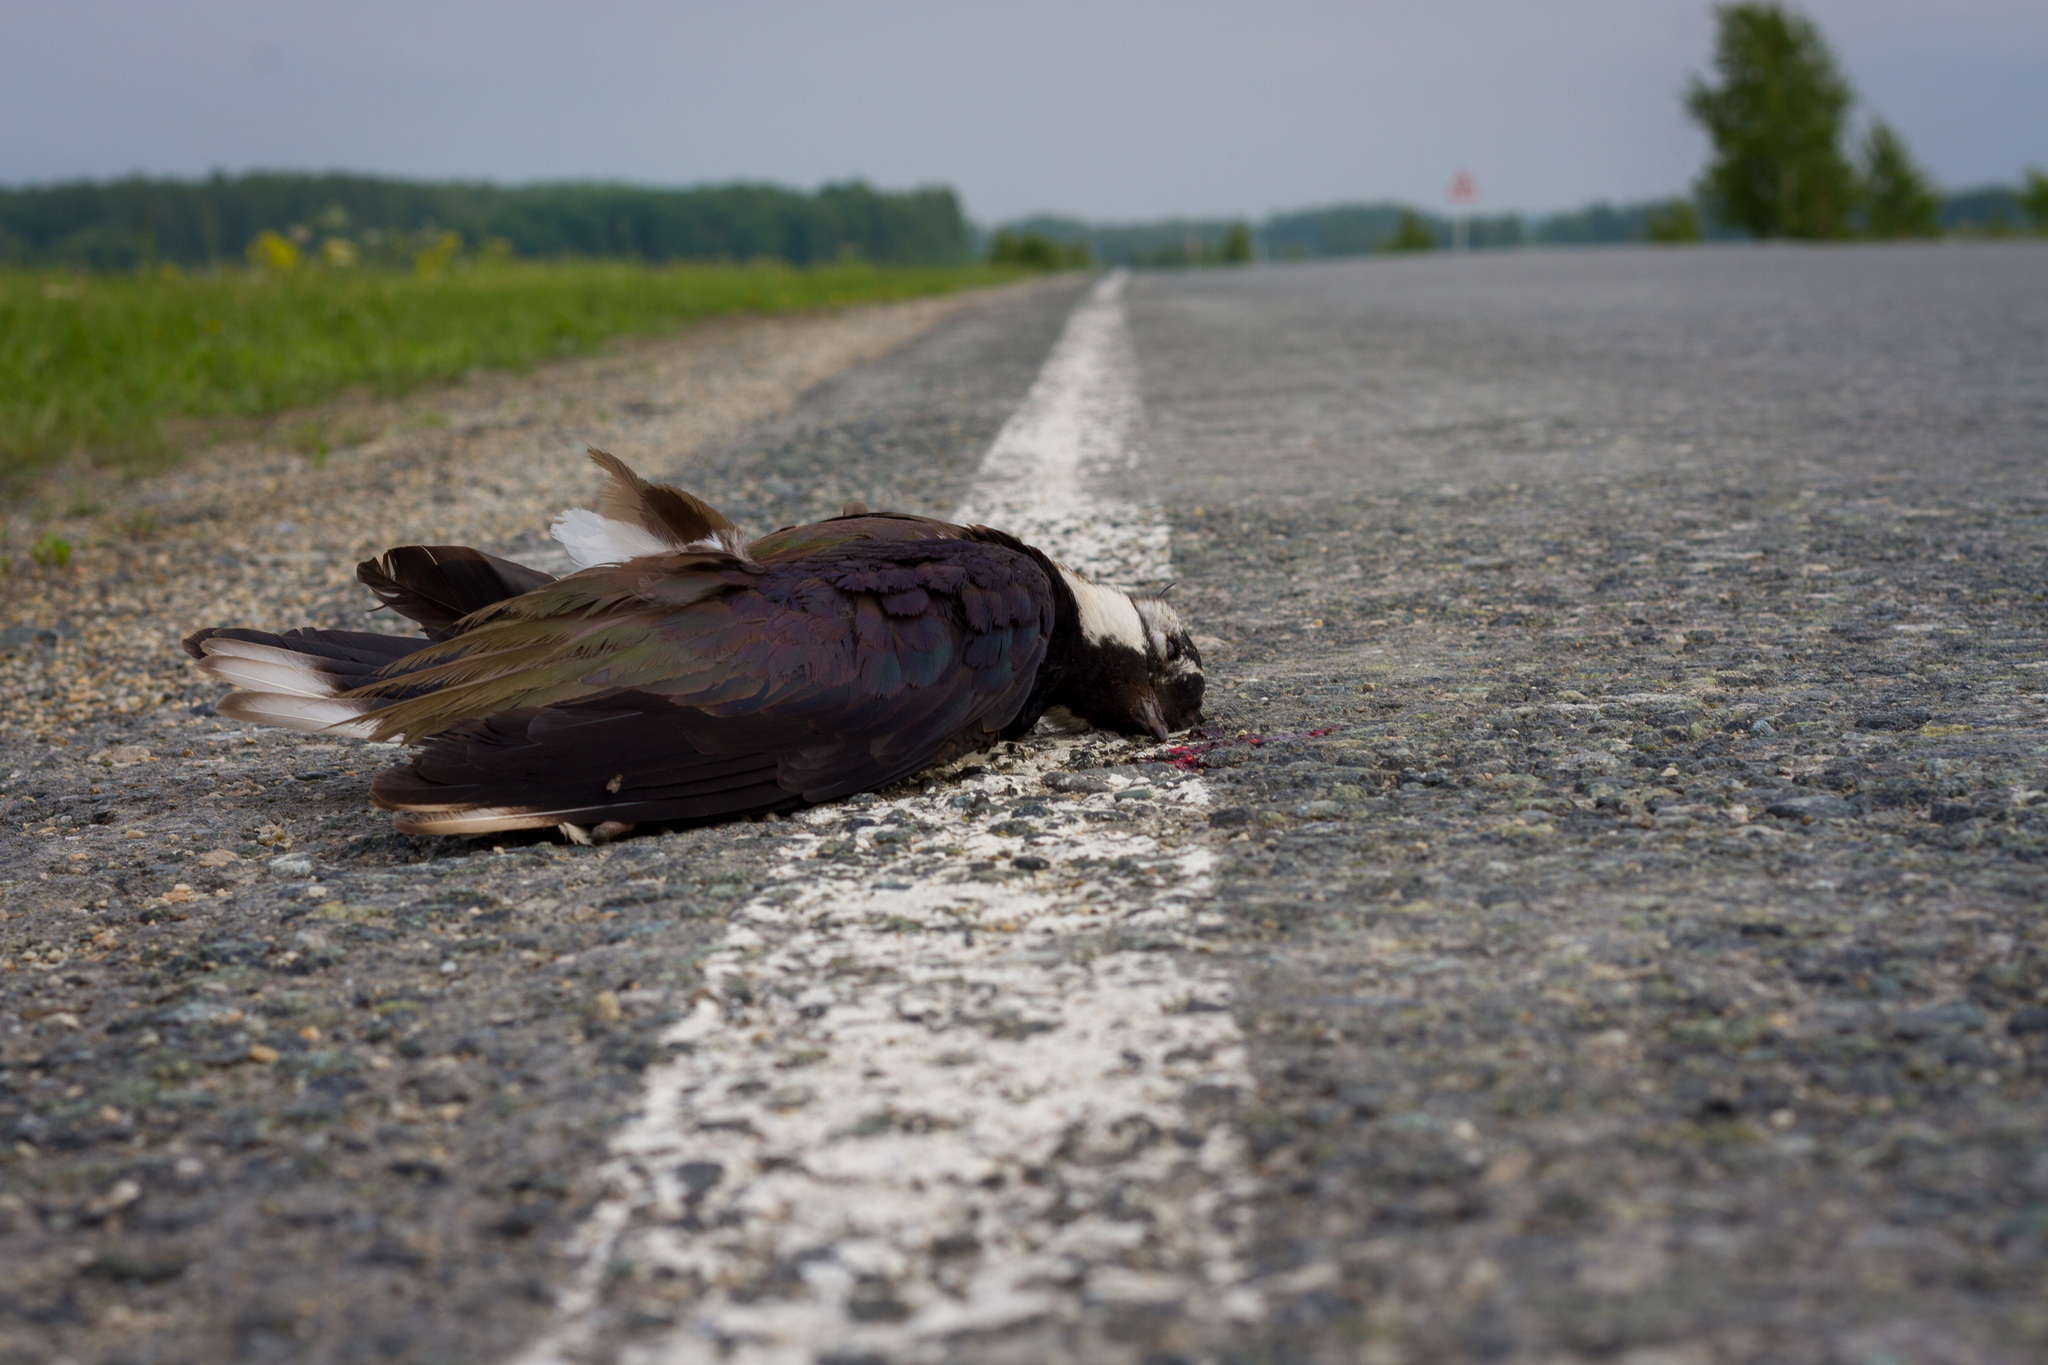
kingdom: Animalia
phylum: Chordata
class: Aves
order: Charadriiformes
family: Charadriidae
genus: Vanellus
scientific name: Vanellus vanellus
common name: Northern lapwing
